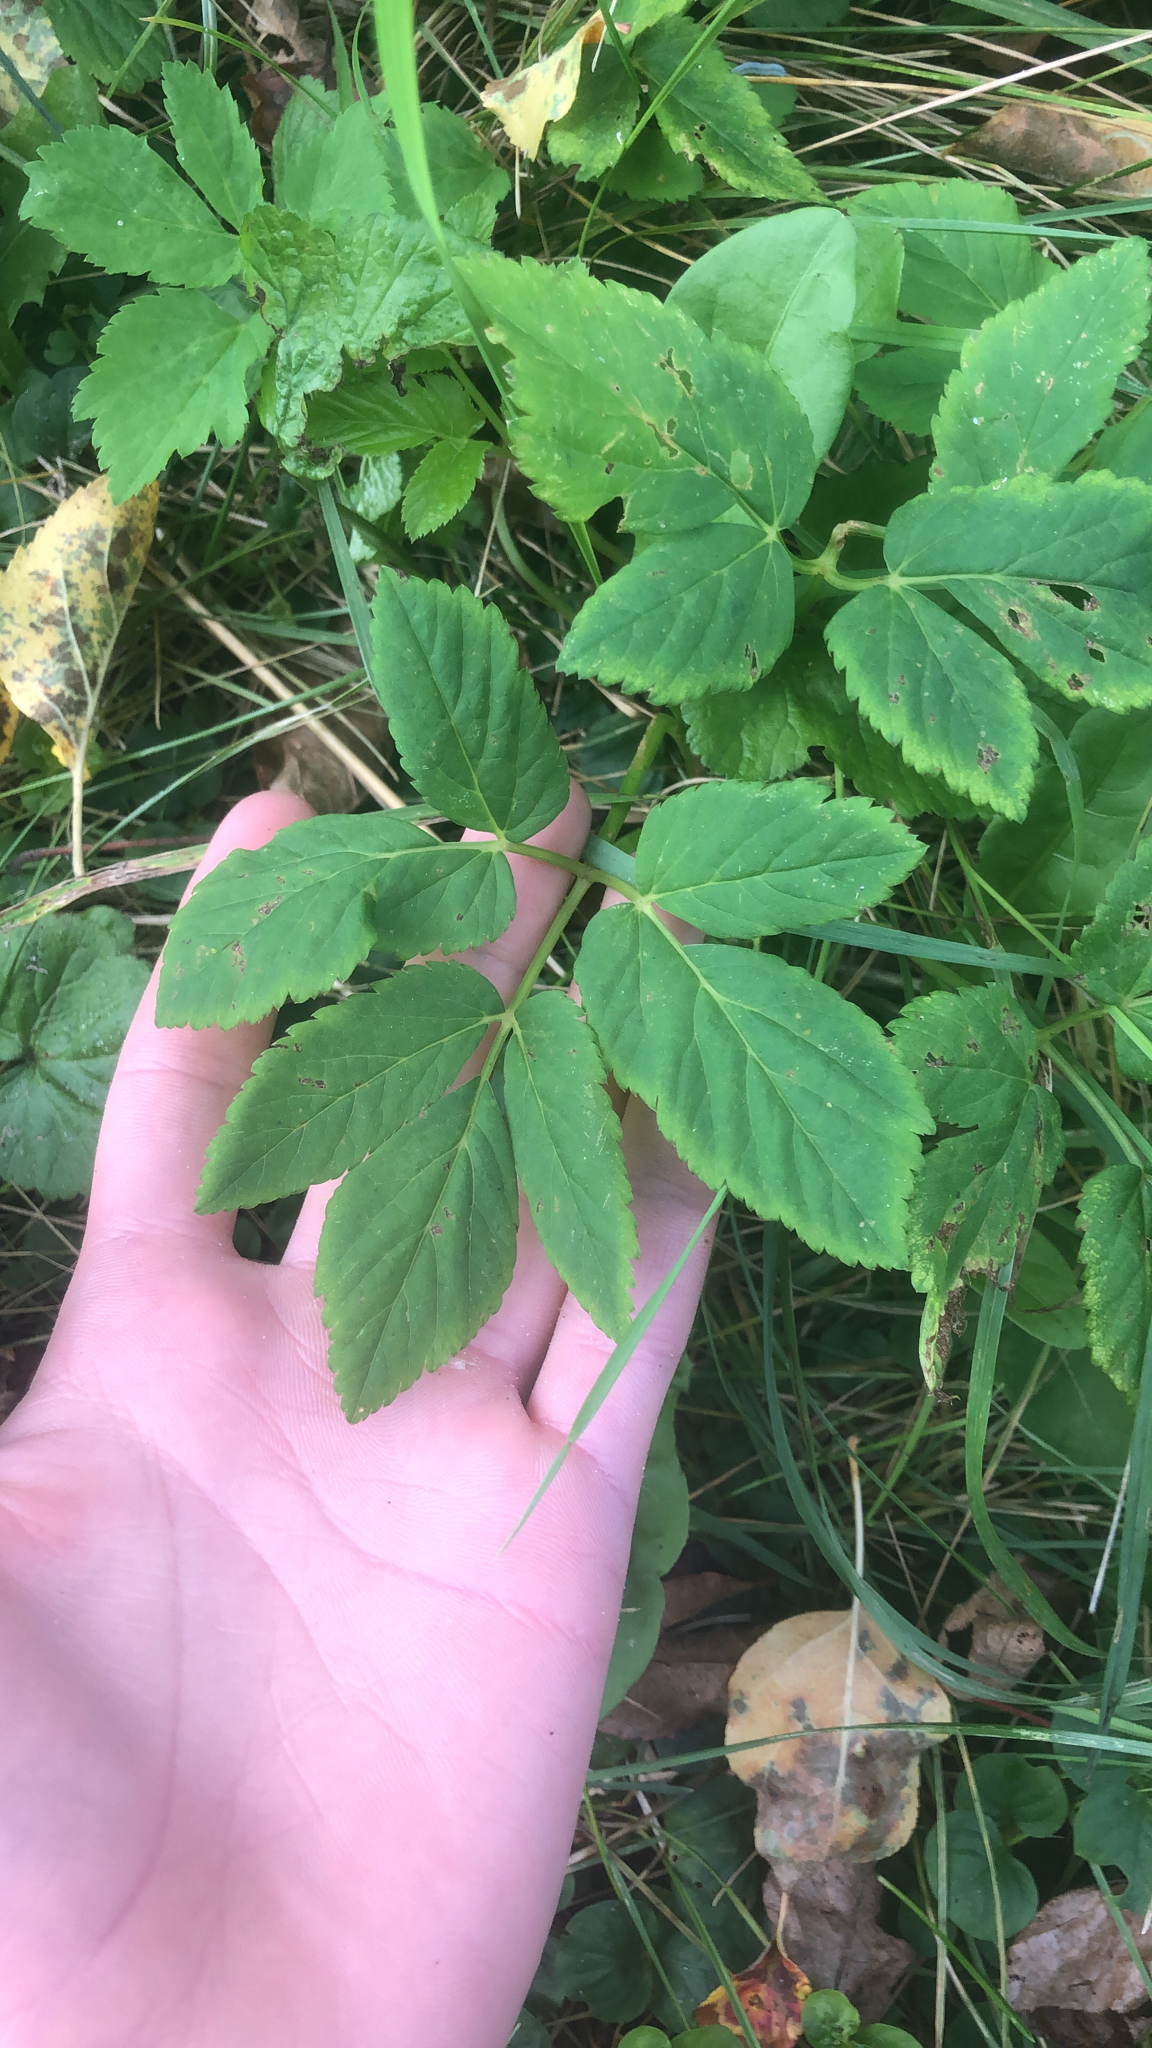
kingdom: Plantae
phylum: Tracheophyta
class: Magnoliopsida
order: Apiales
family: Apiaceae
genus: Aegopodium
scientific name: Aegopodium podagraria
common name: Ground-elder
